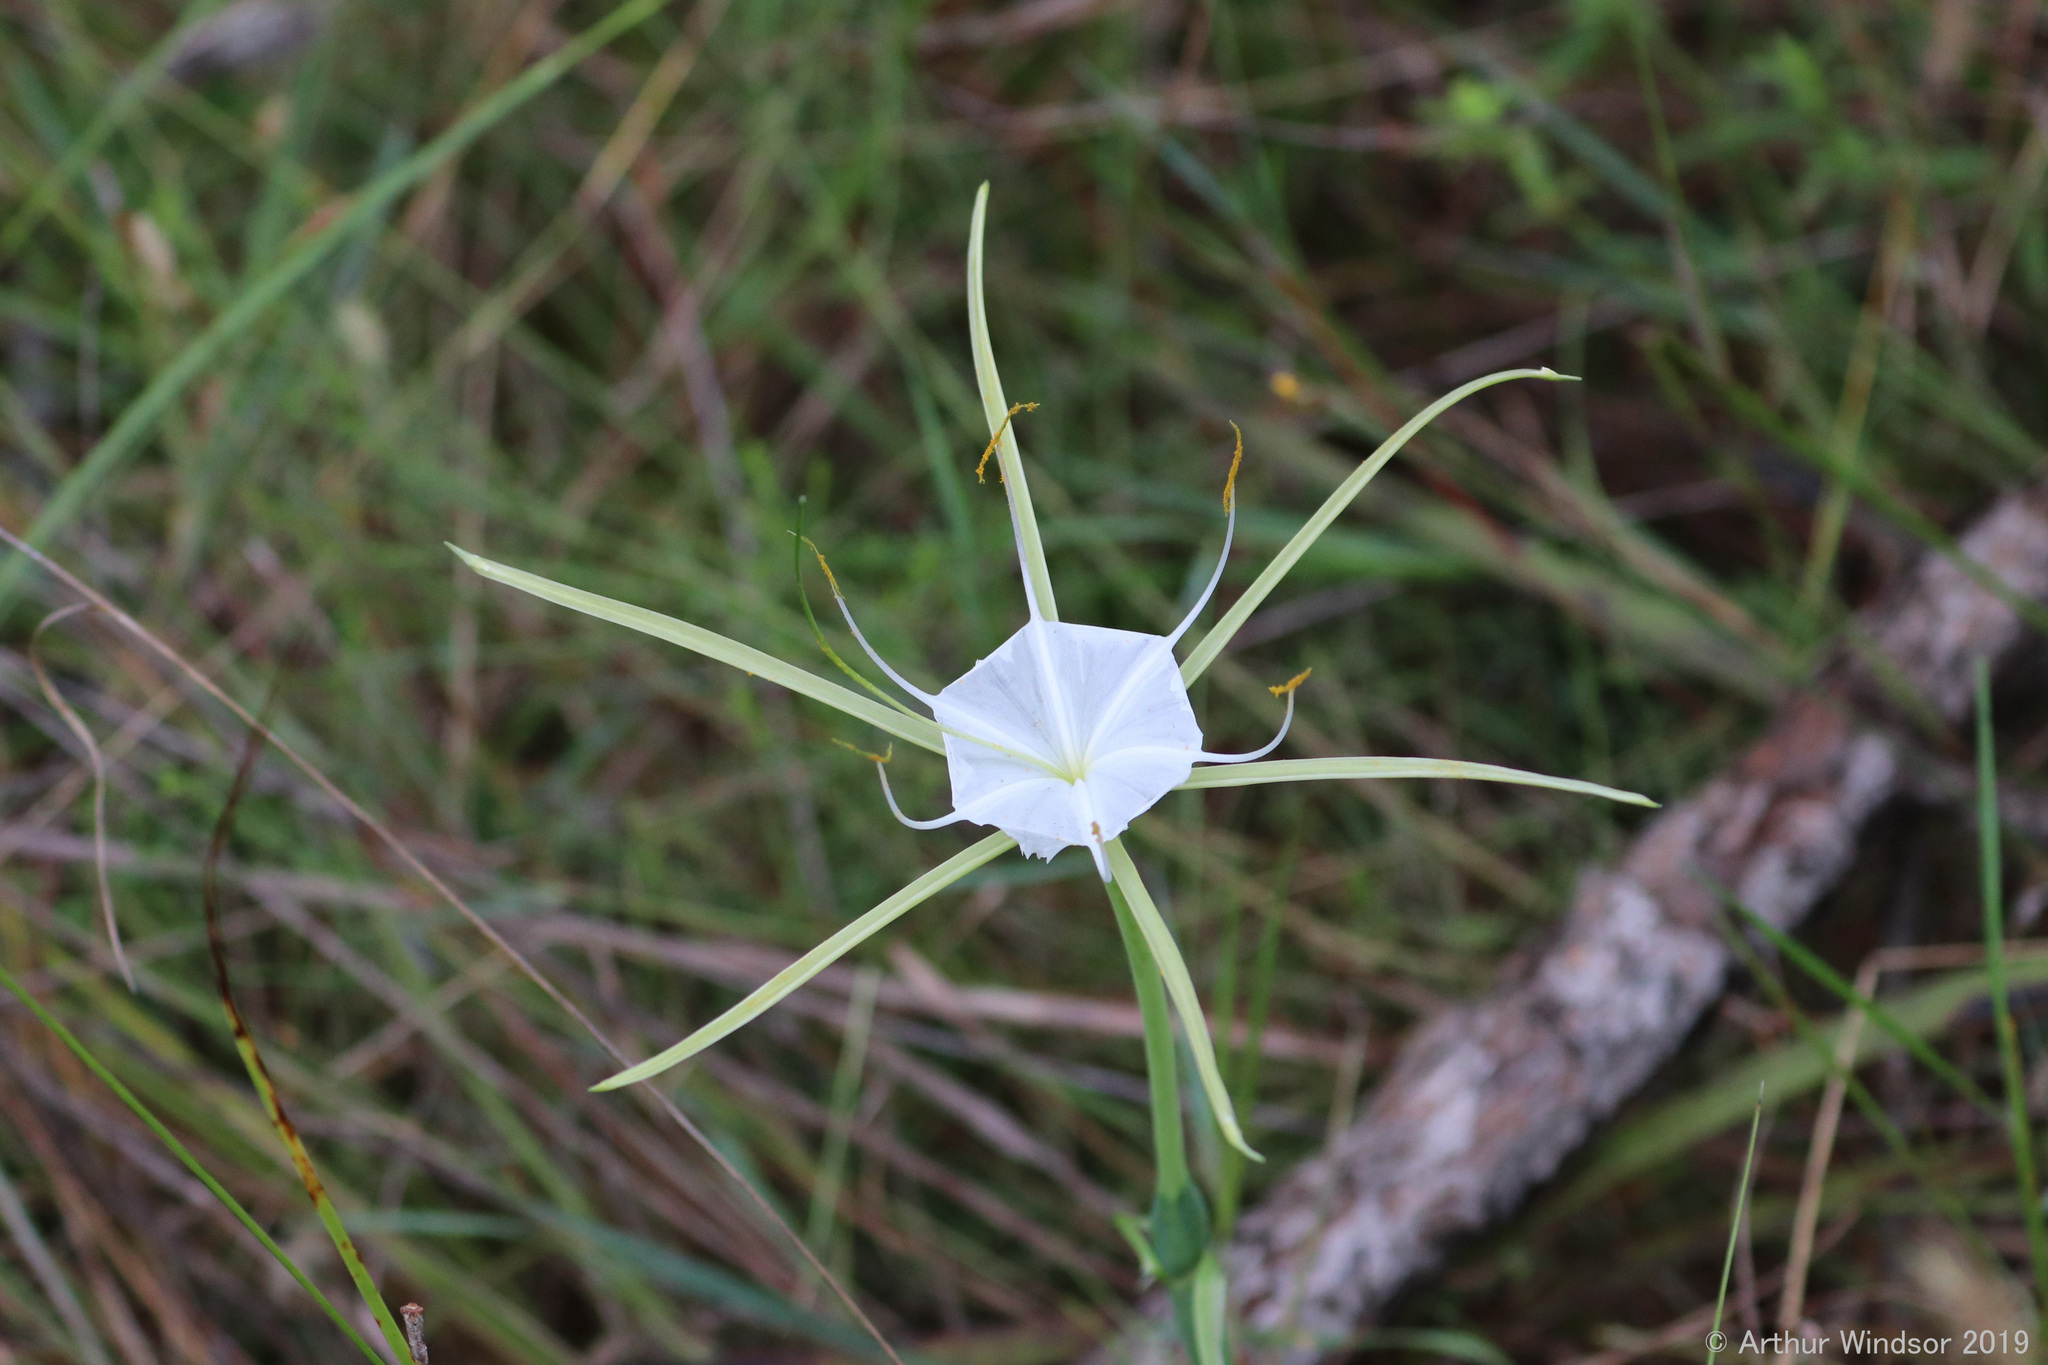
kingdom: Plantae
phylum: Tracheophyta
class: Liliopsida
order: Asparagales
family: Amaryllidaceae
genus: Hymenocallis
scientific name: Hymenocallis palmeri
